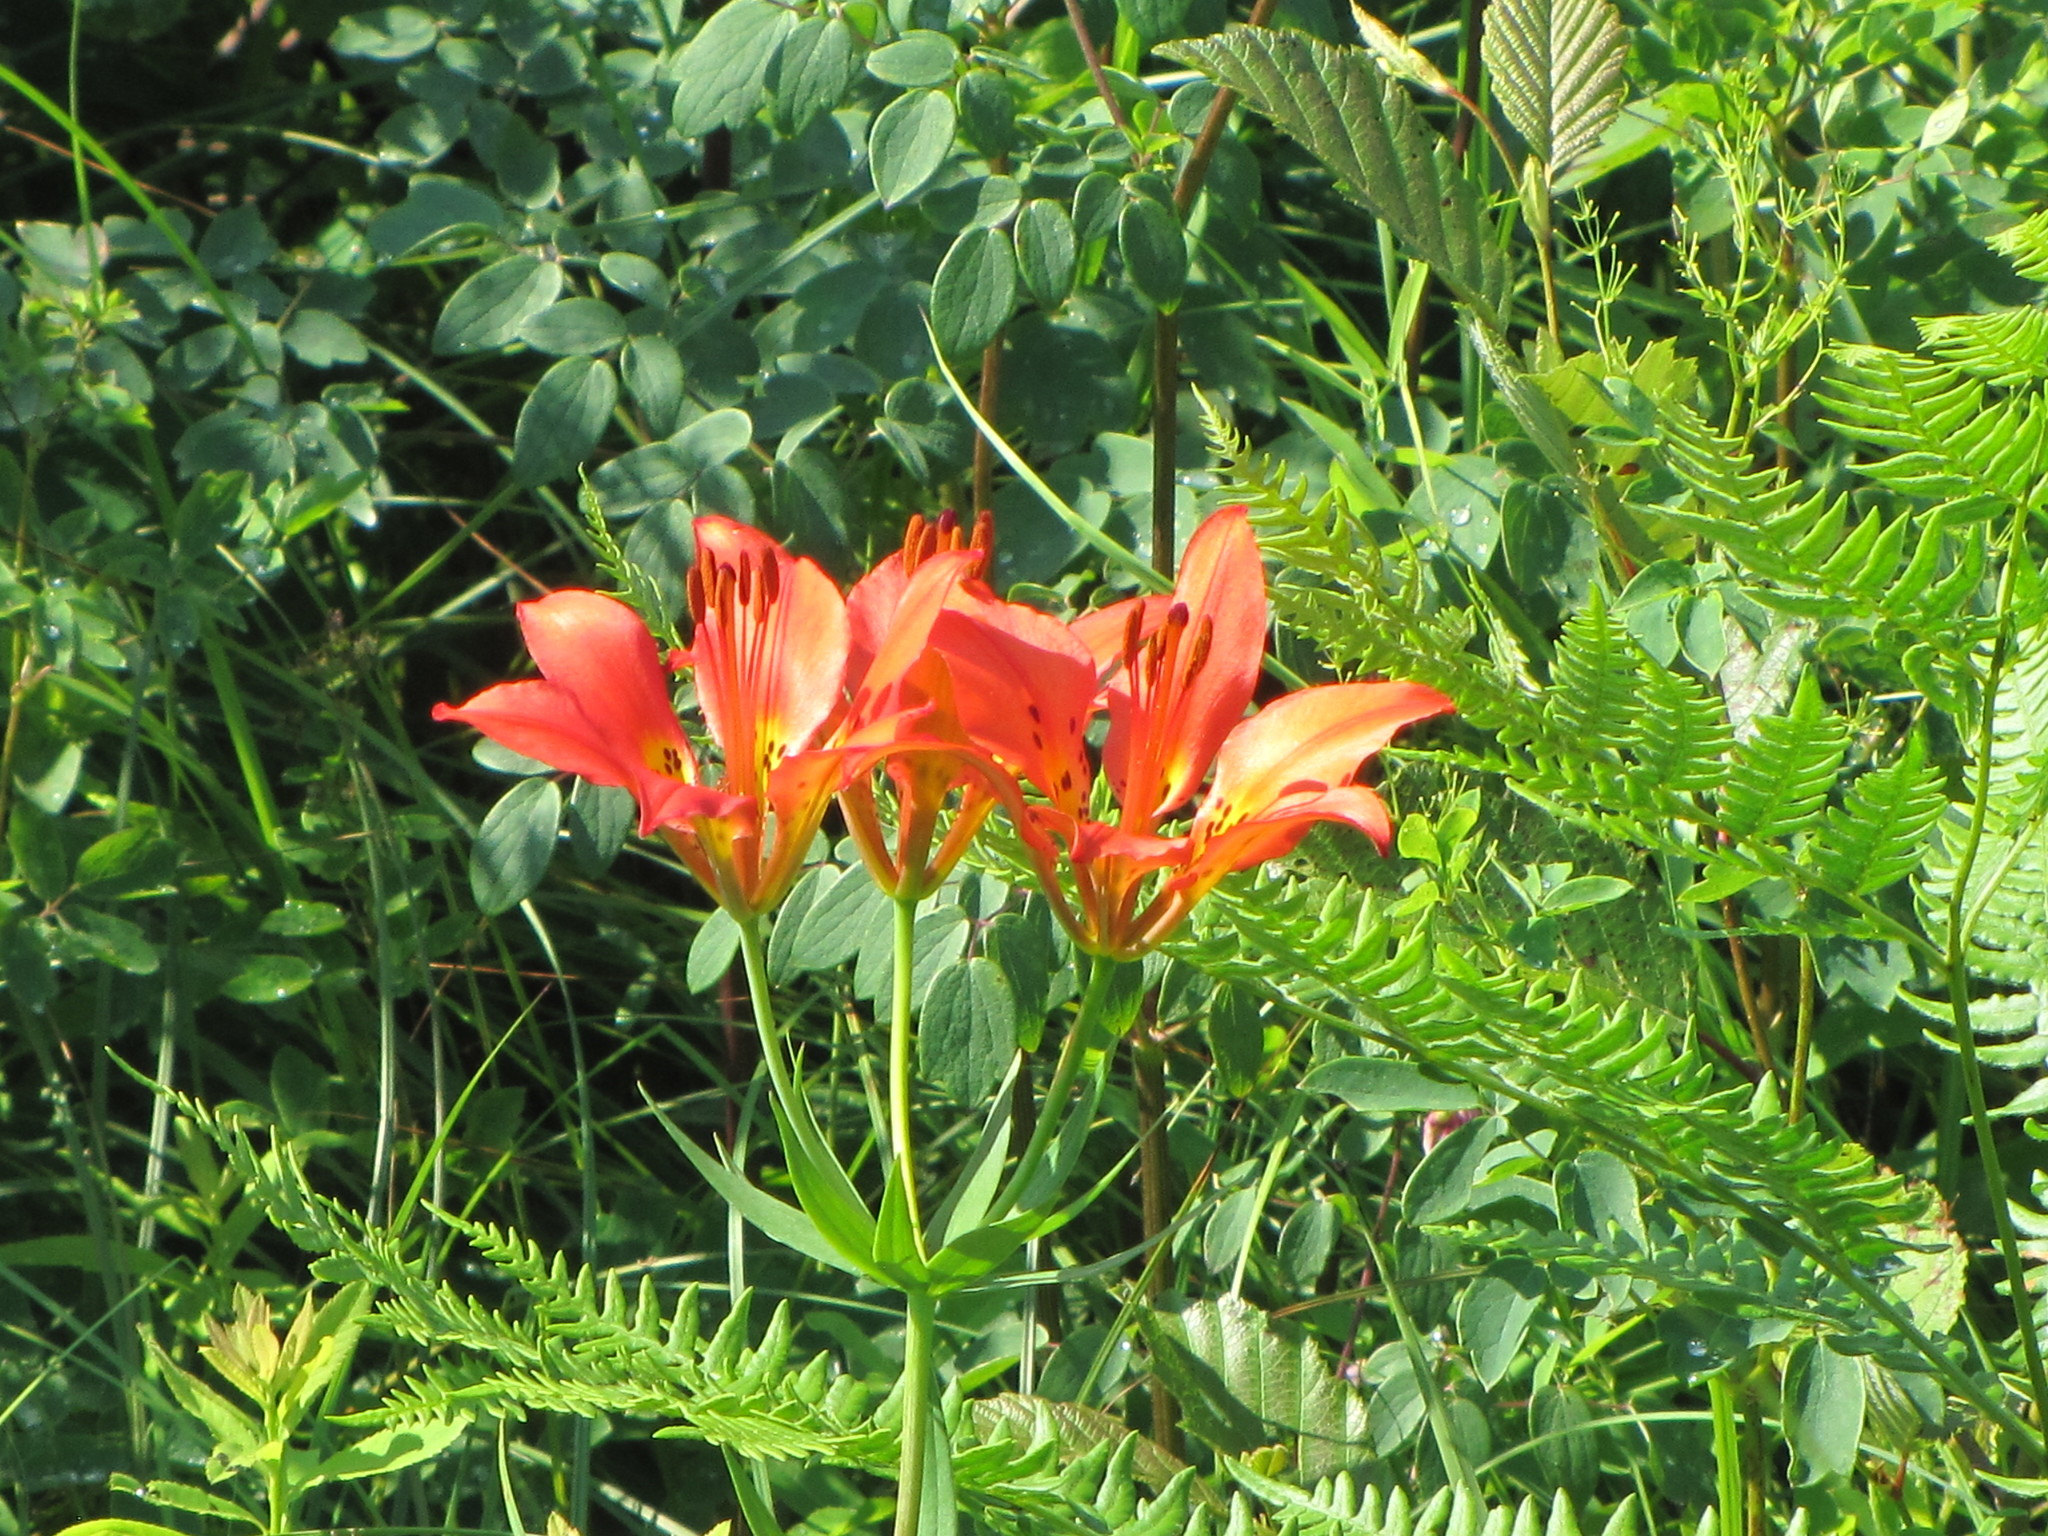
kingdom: Plantae
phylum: Tracheophyta
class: Liliopsida
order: Liliales
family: Liliaceae
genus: Lilium
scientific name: Lilium philadelphicum
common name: Red lily
